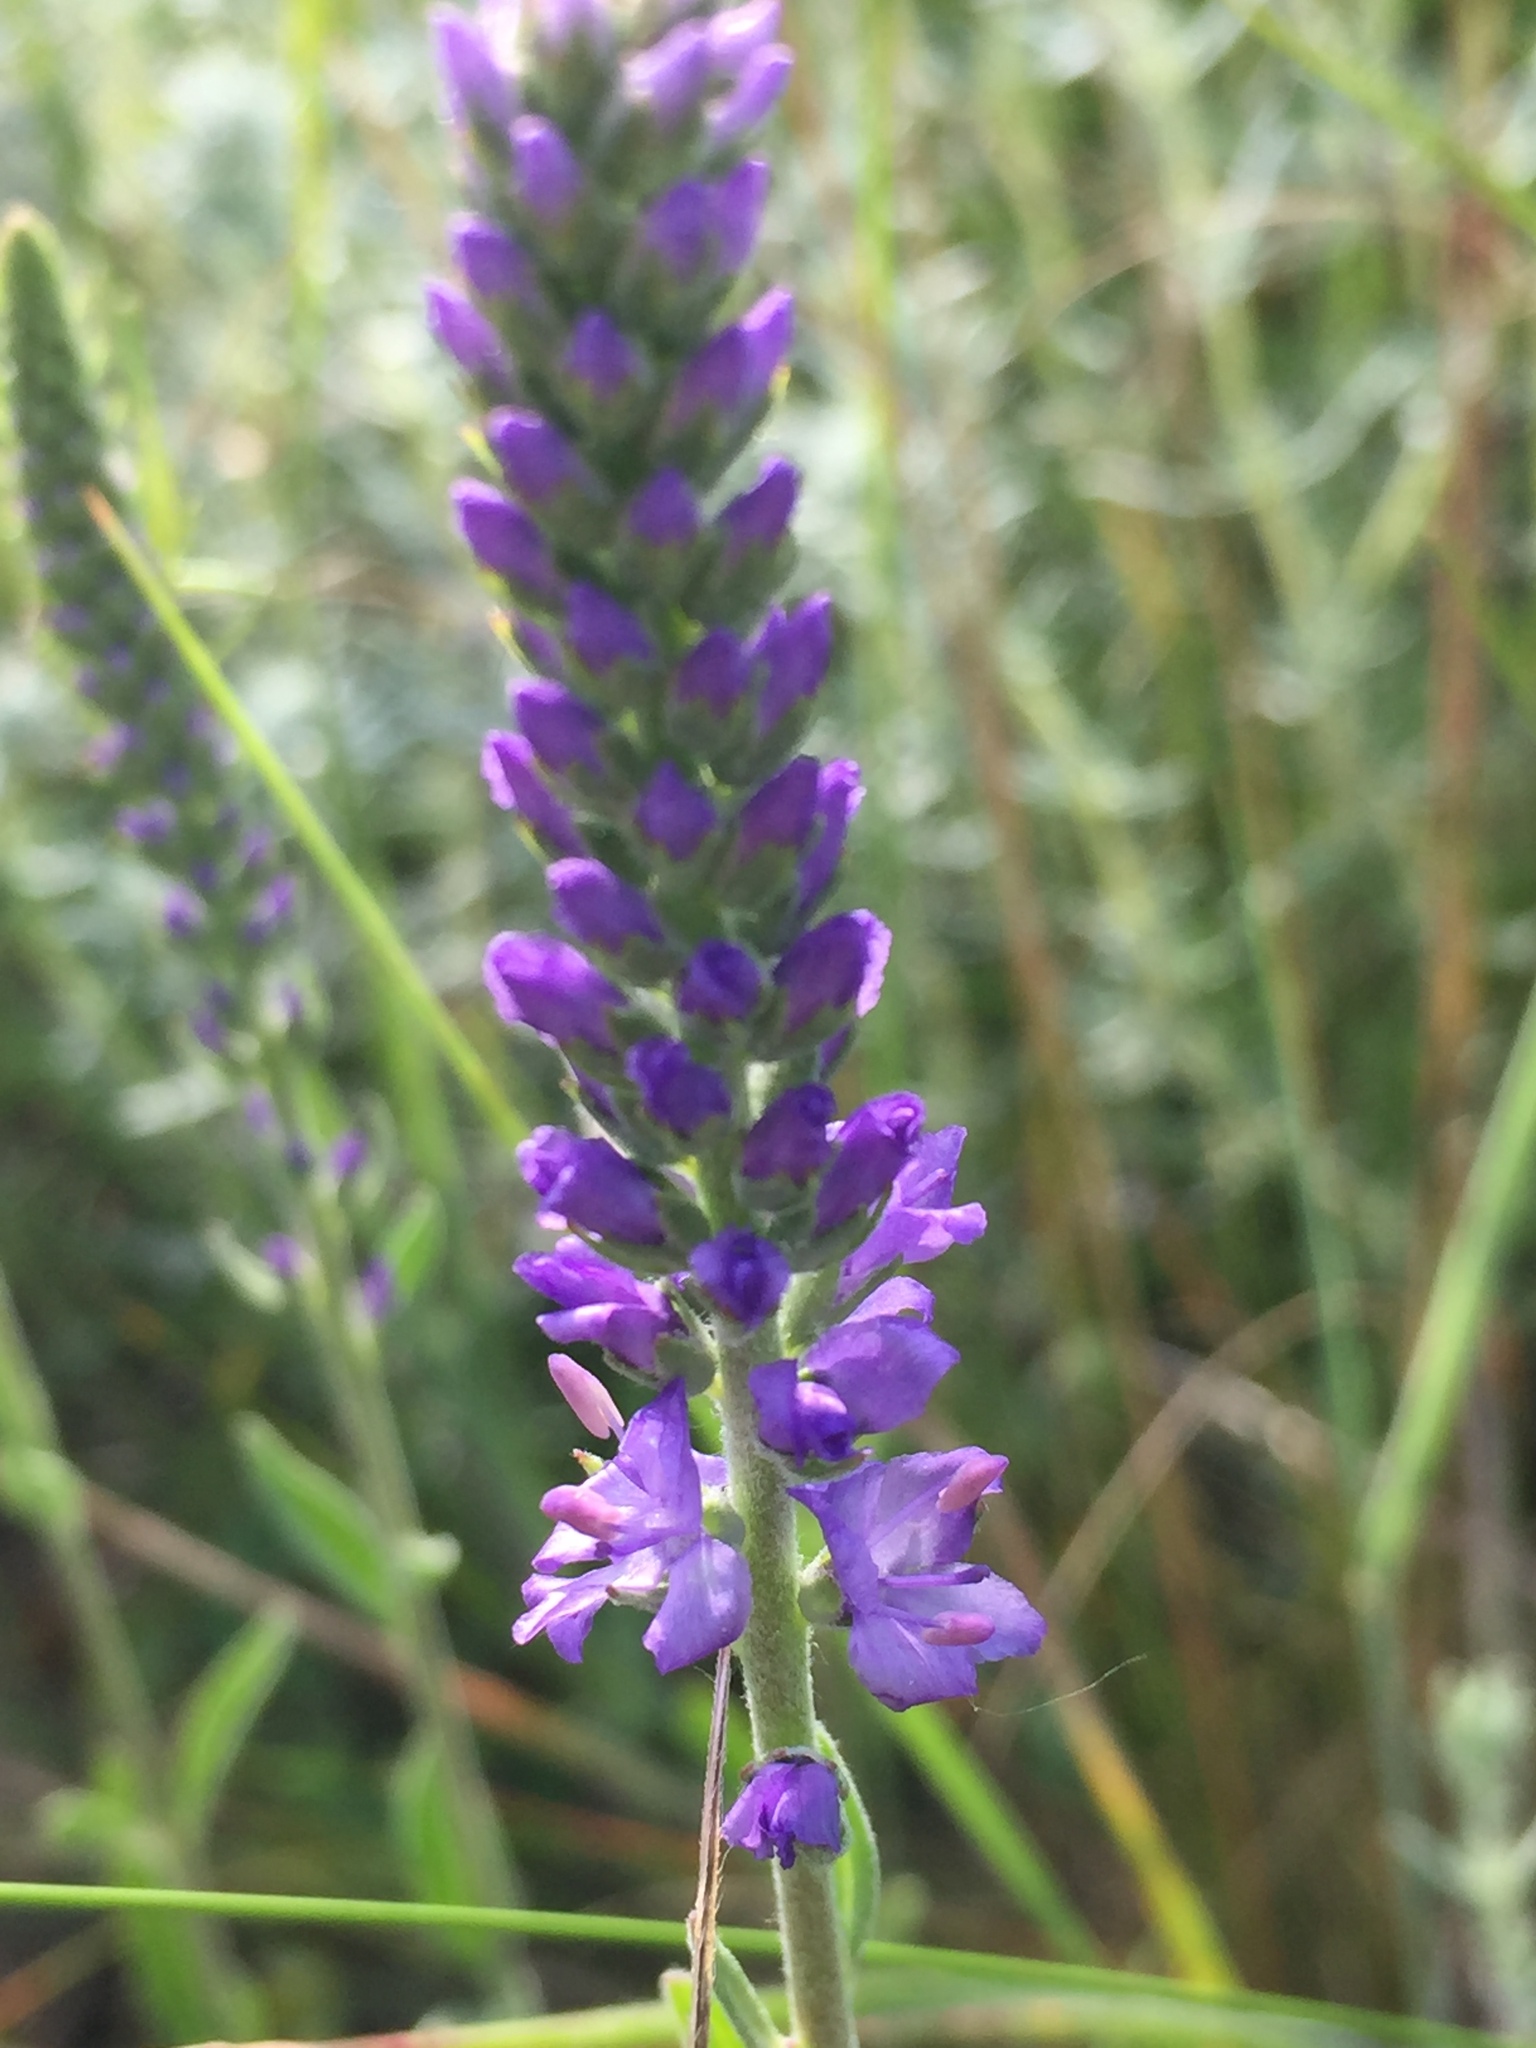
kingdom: Plantae
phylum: Tracheophyta
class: Magnoliopsida
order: Lamiales
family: Plantaginaceae
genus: Veronica
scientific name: Veronica spicata
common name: Spiked speedwell
